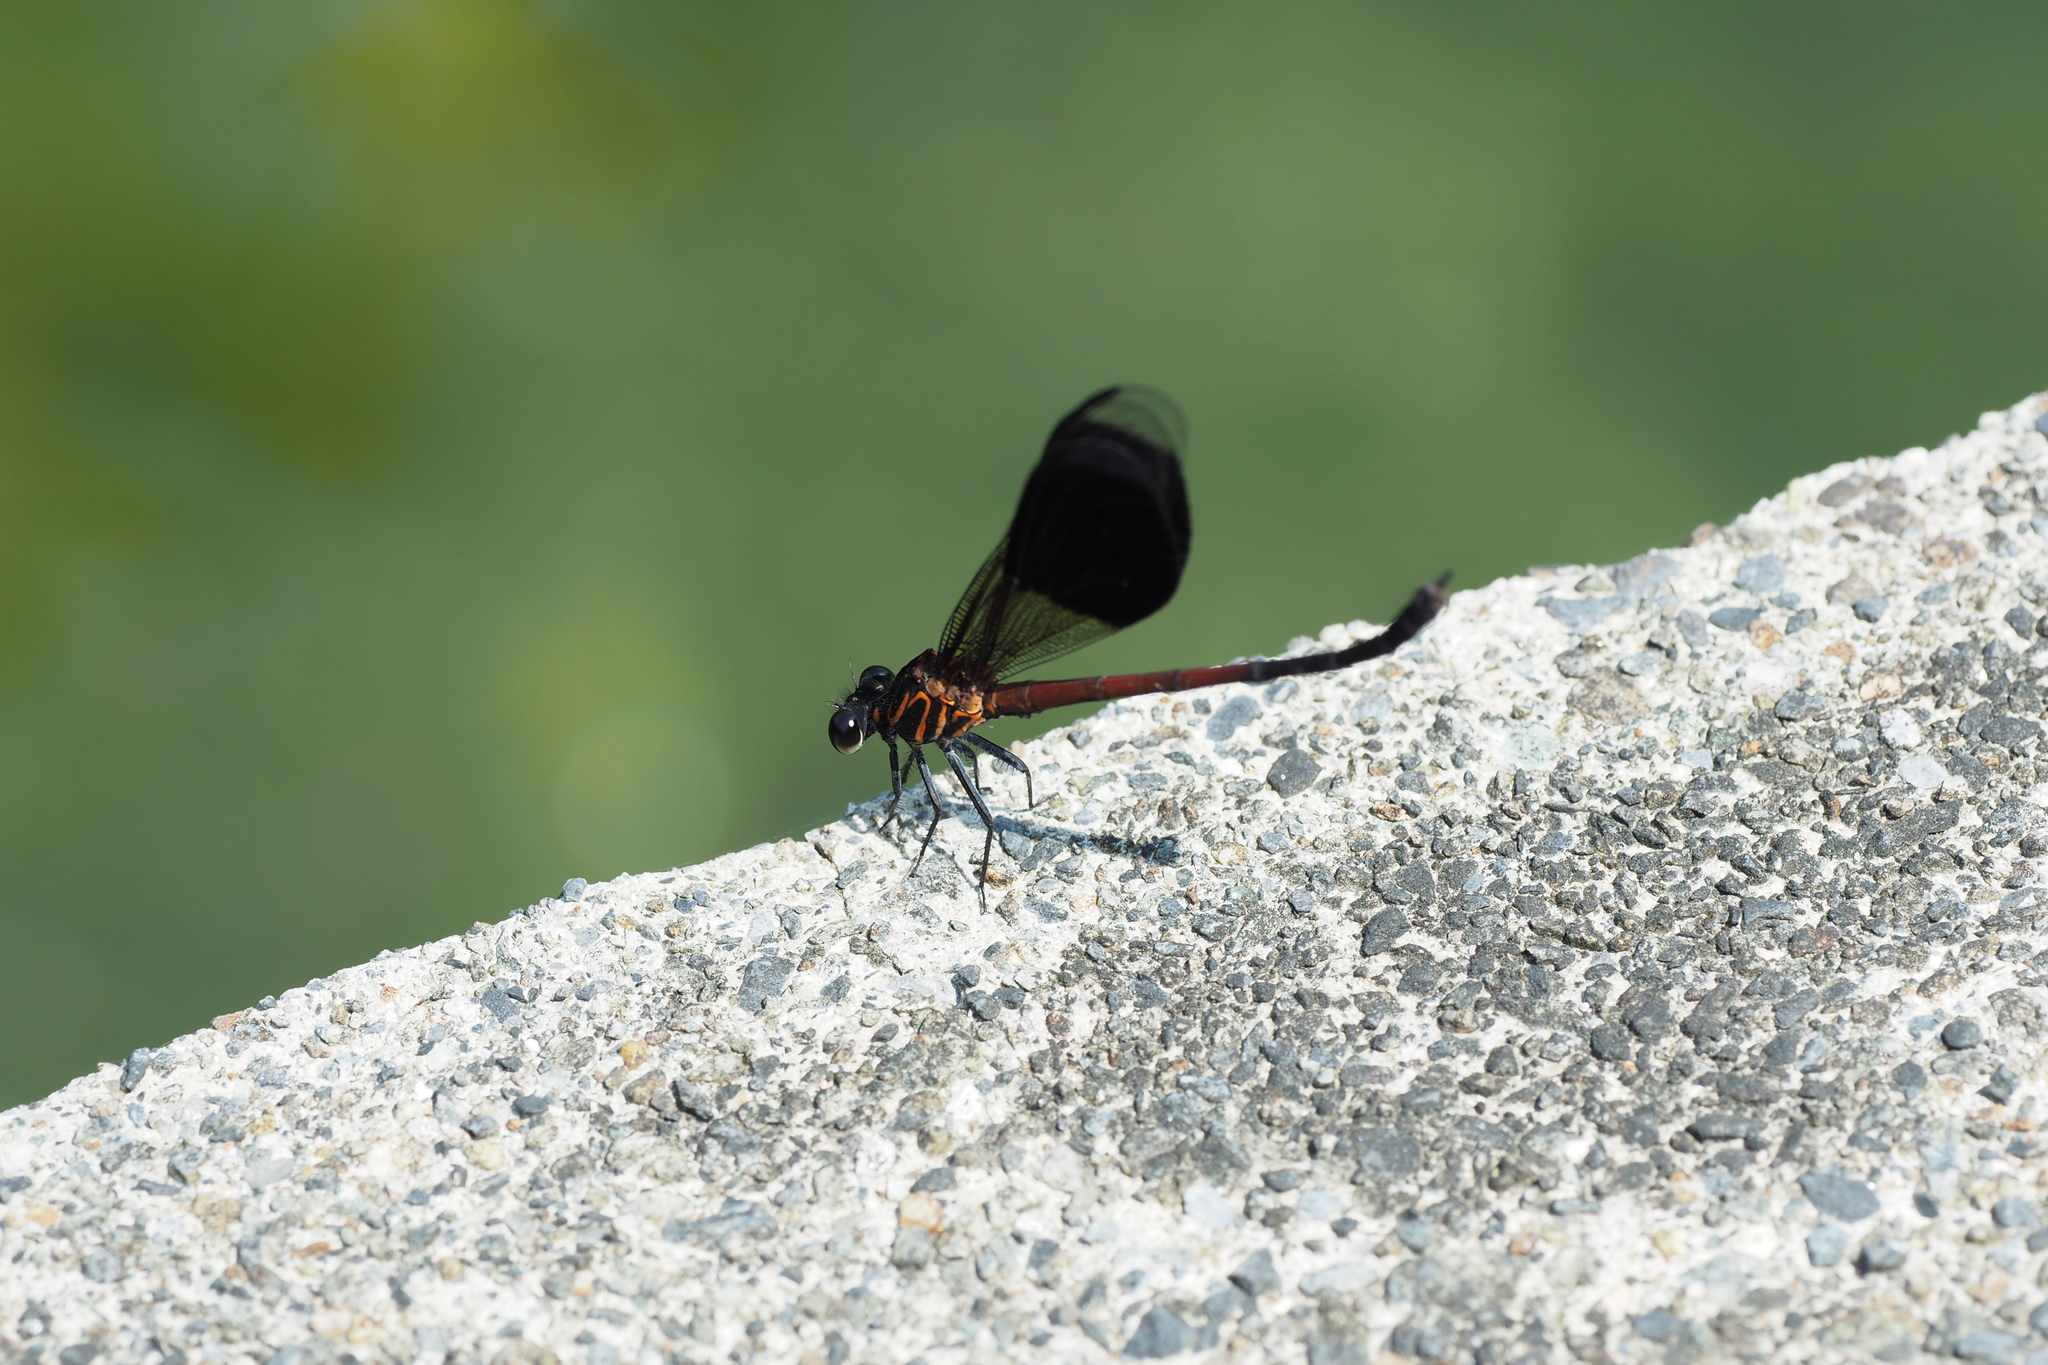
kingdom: Animalia
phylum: Arthropoda
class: Insecta
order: Odonata
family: Euphaeidae
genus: Euphaea
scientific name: Euphaea formosa
